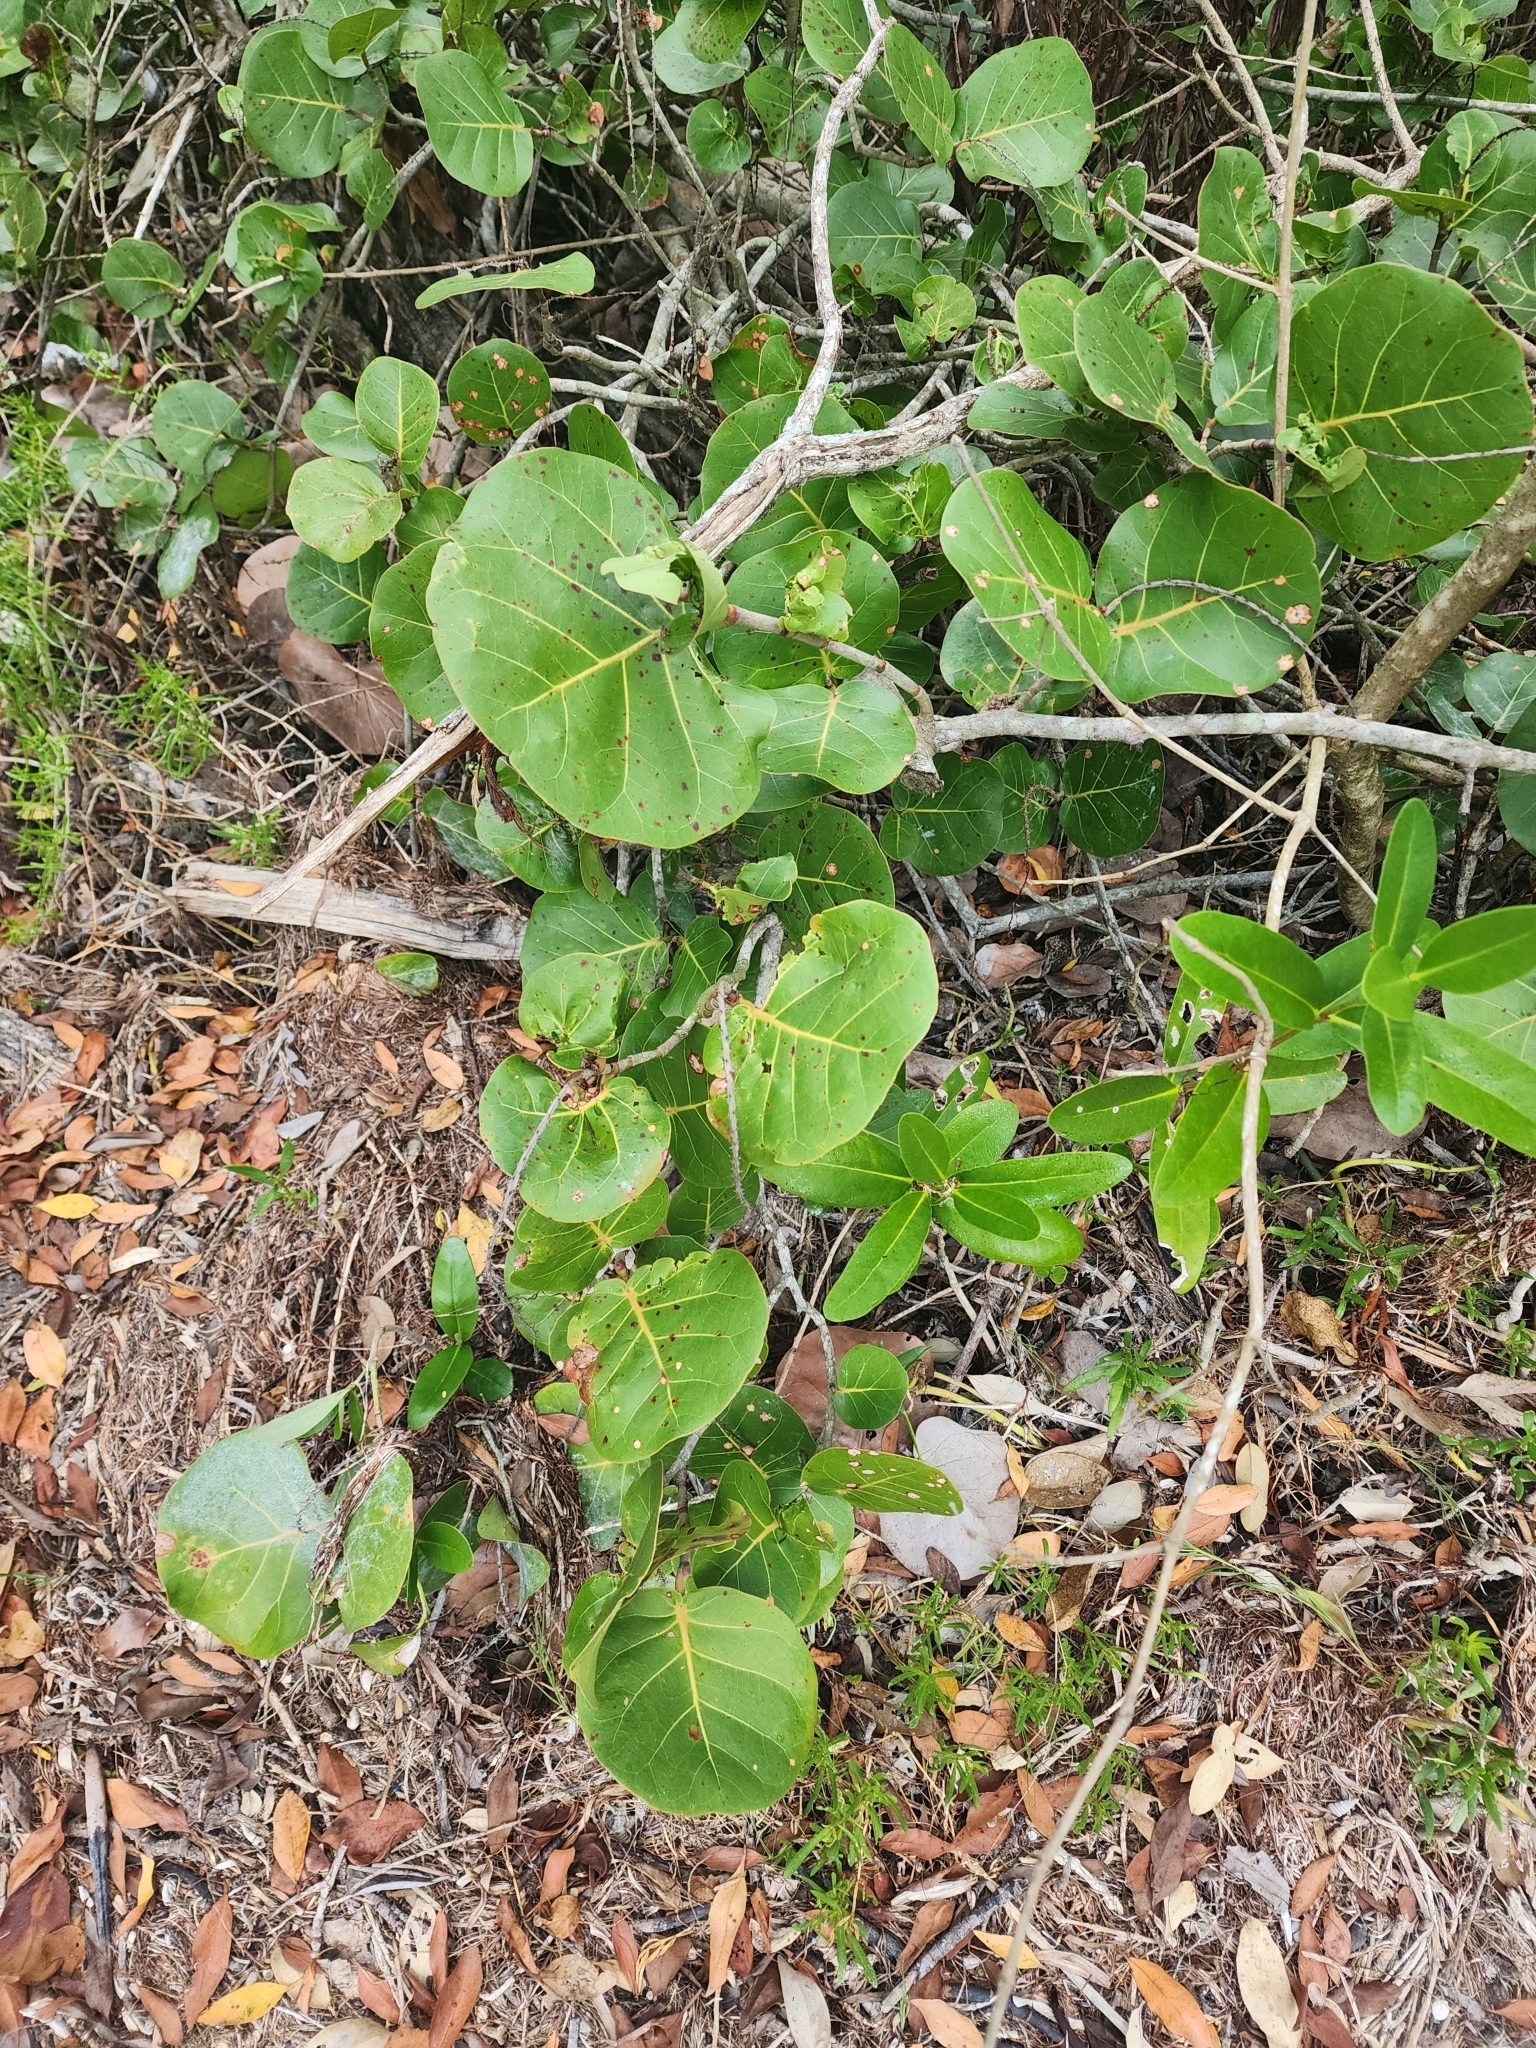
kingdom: Plantae
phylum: Tracheophyta
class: Magnoliopsida
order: Caryophyllales
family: Polygonaceae
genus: Coccoloba
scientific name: Coccoloba uvifera
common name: Seagrape
